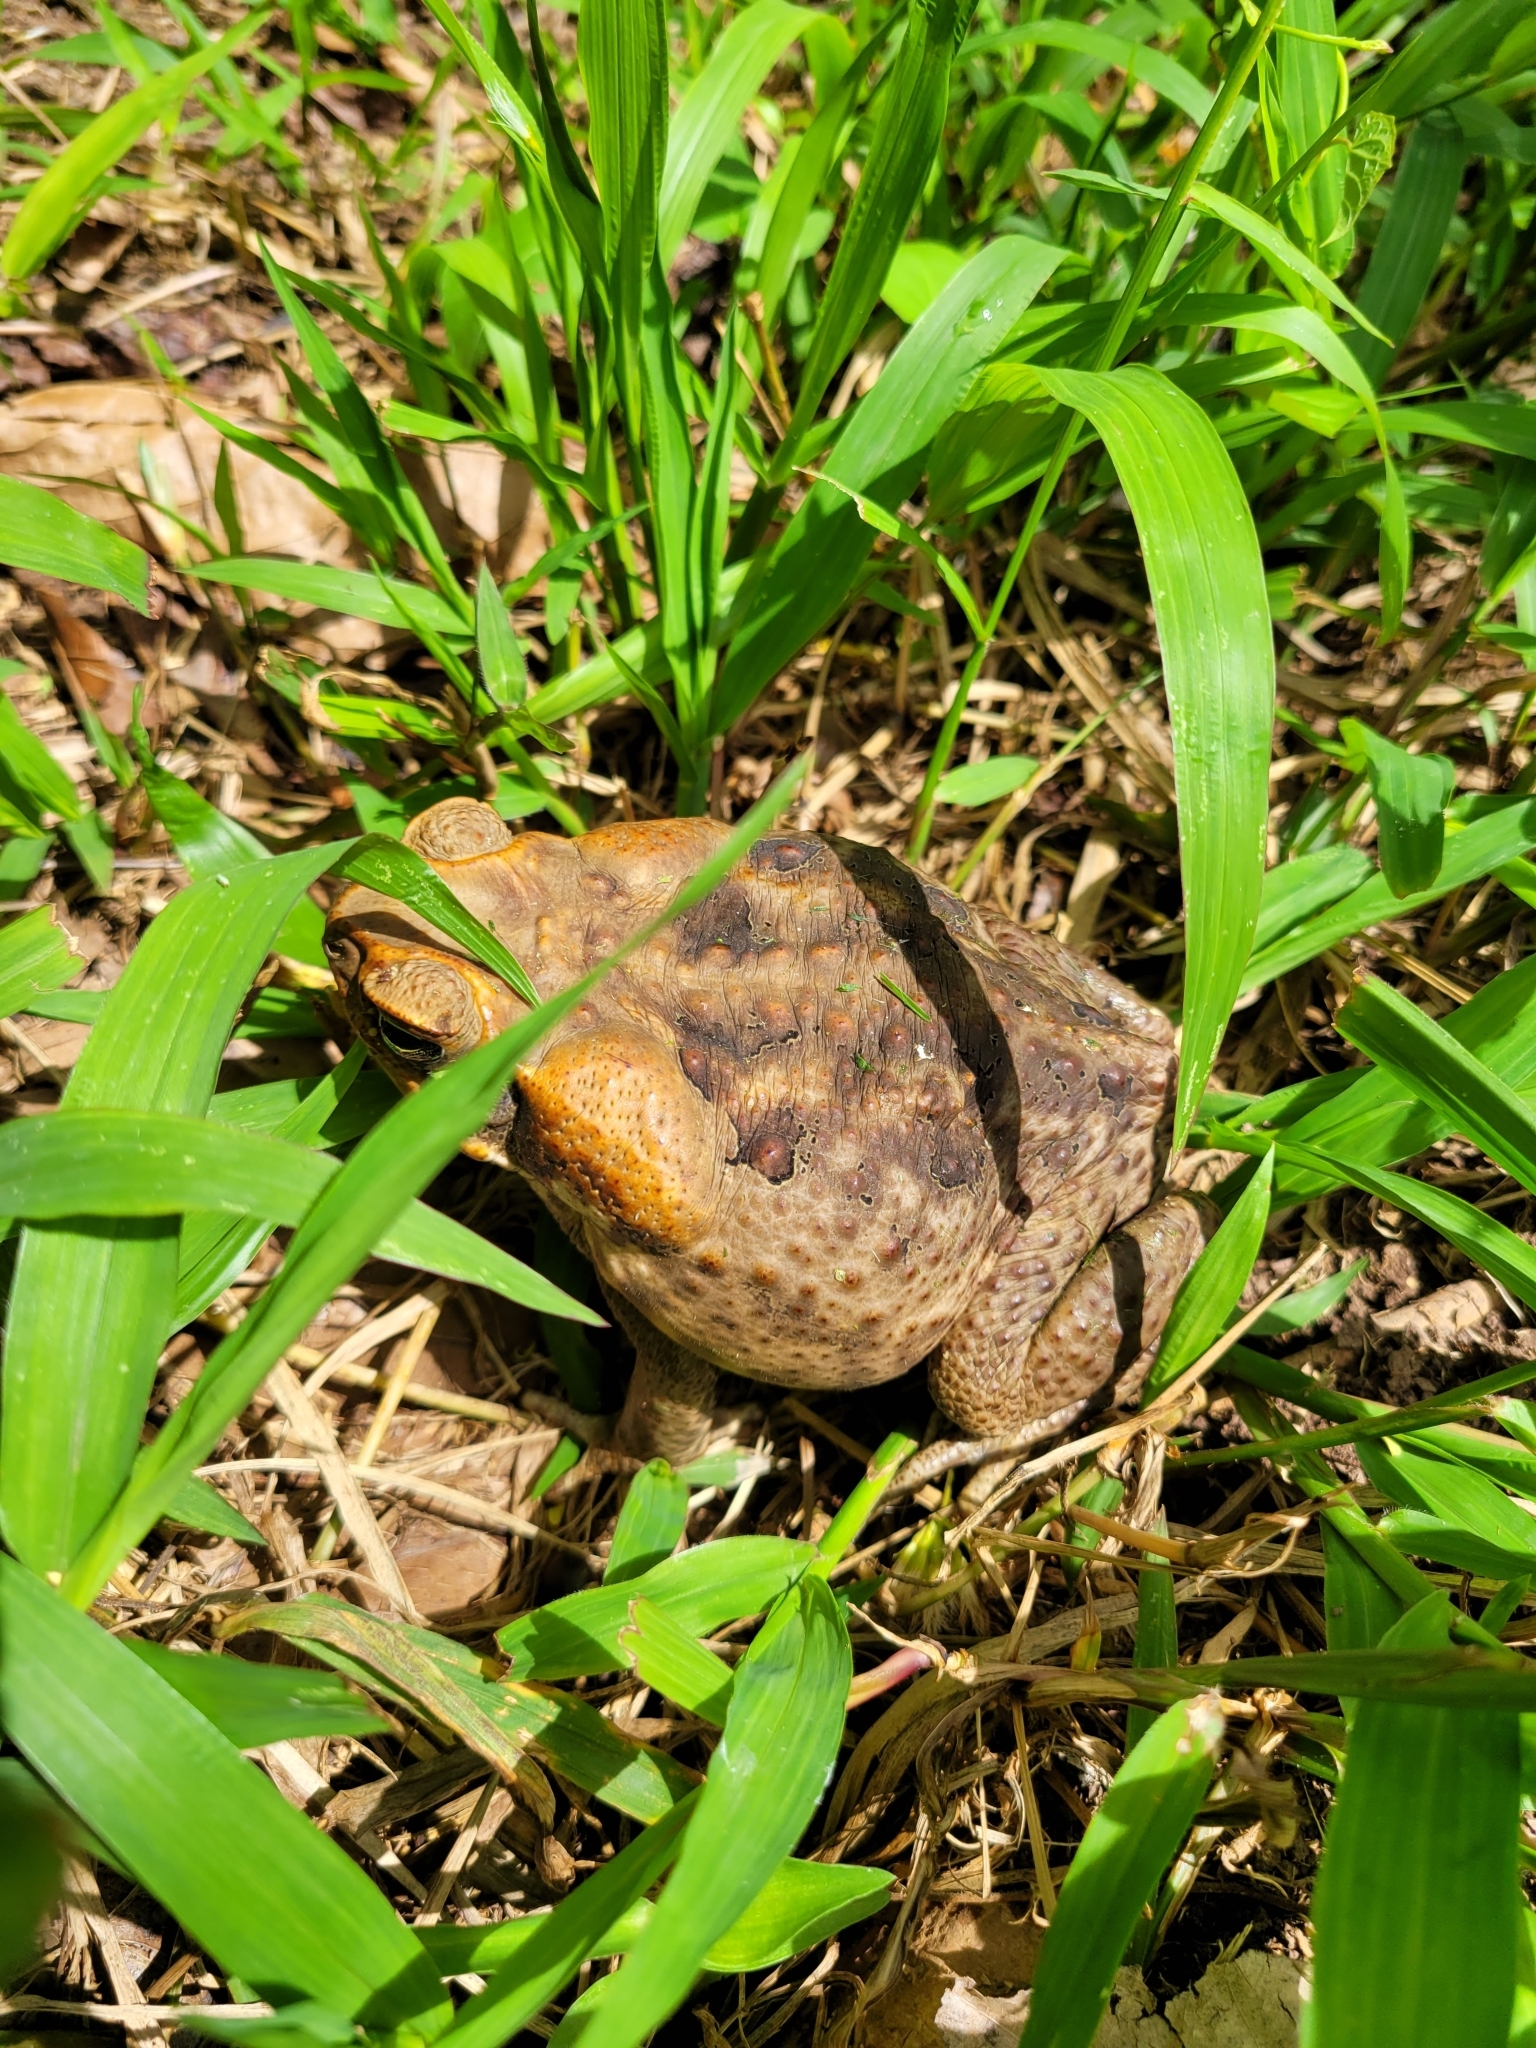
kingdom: Animalia
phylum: Chordata
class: Amphibia
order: Anura
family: Bufonidae
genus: Rhinella
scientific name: Rhinella marina
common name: Cane toad
